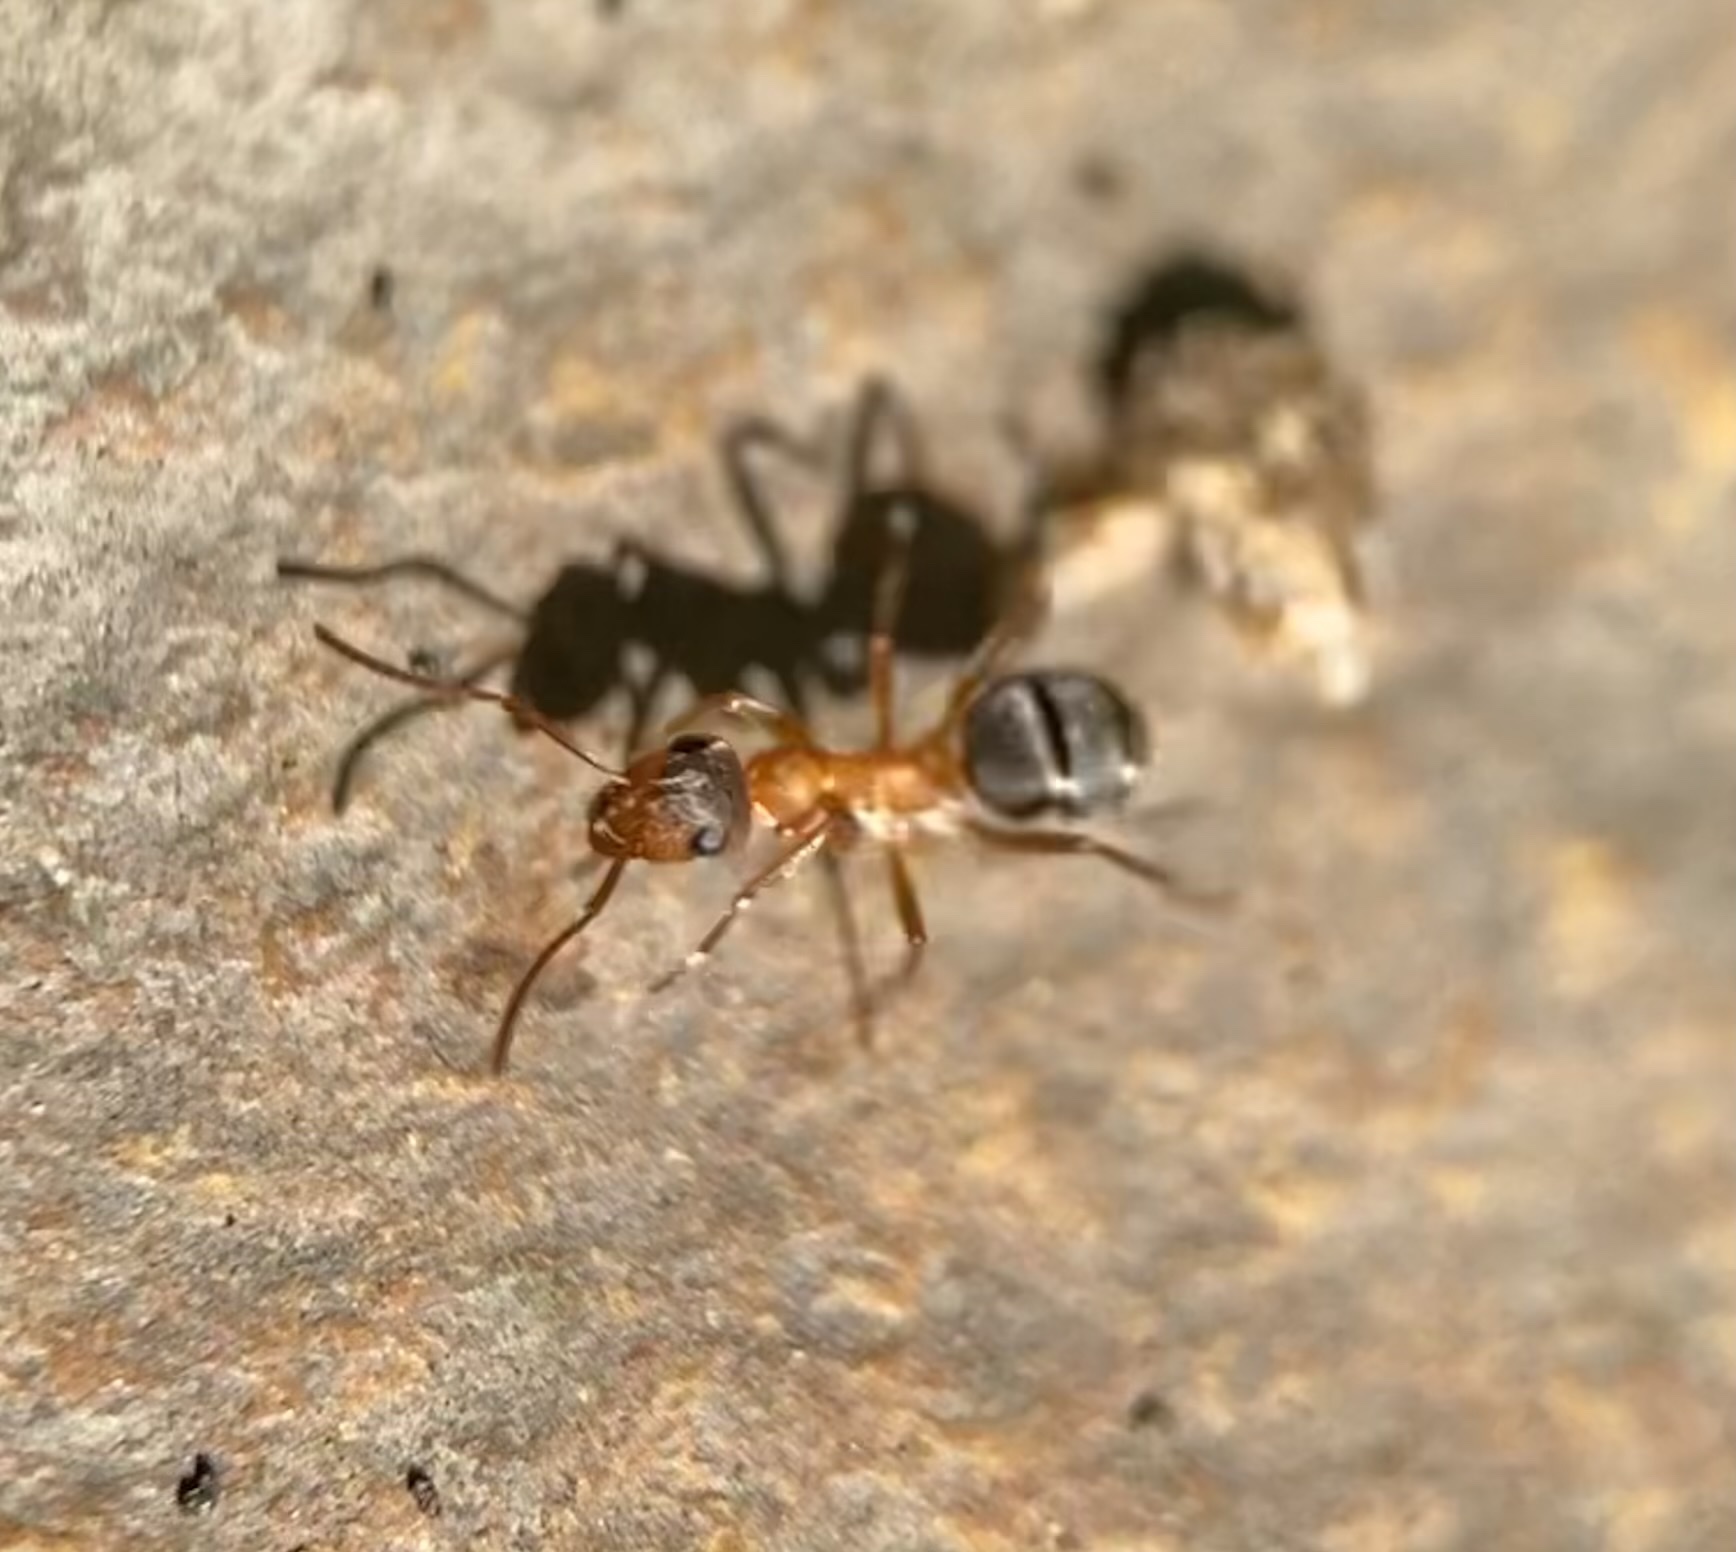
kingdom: Animalia
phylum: Arthropoda
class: Insecta
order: Hymenoptera
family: Formicidae
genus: Formica
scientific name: Formica moki
